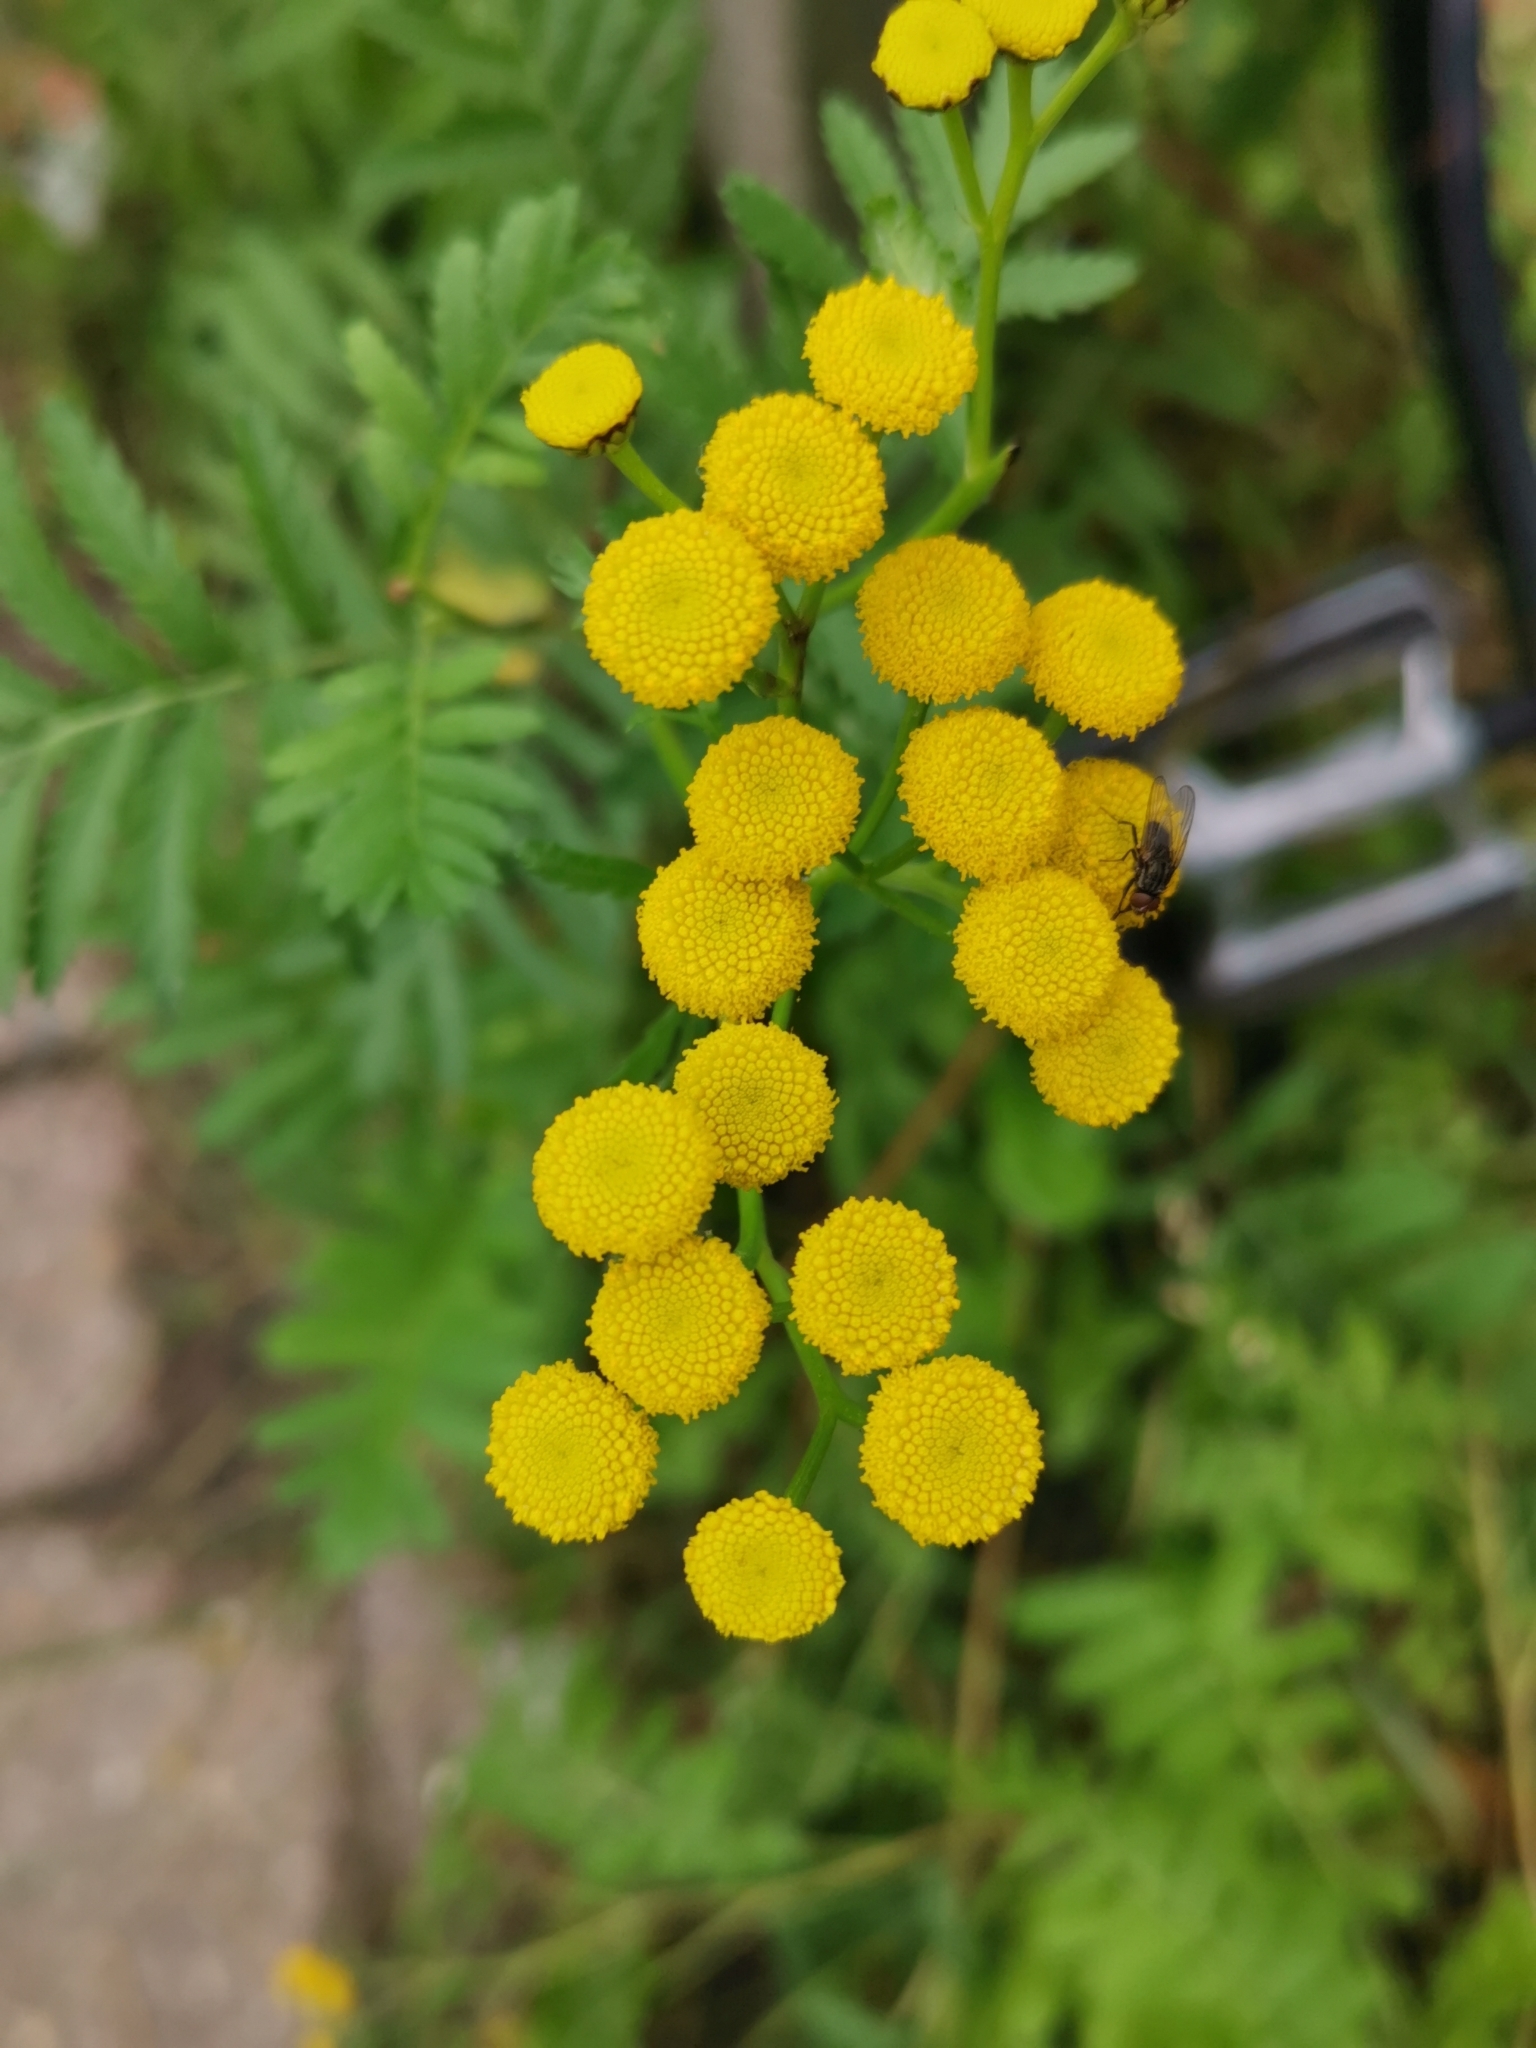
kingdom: Plantae
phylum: Tracheophyta
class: Magnoliopsida
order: Asterales
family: Asteraceae
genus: Tanacetum
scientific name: Tanacetum vulgare
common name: Common tansy
